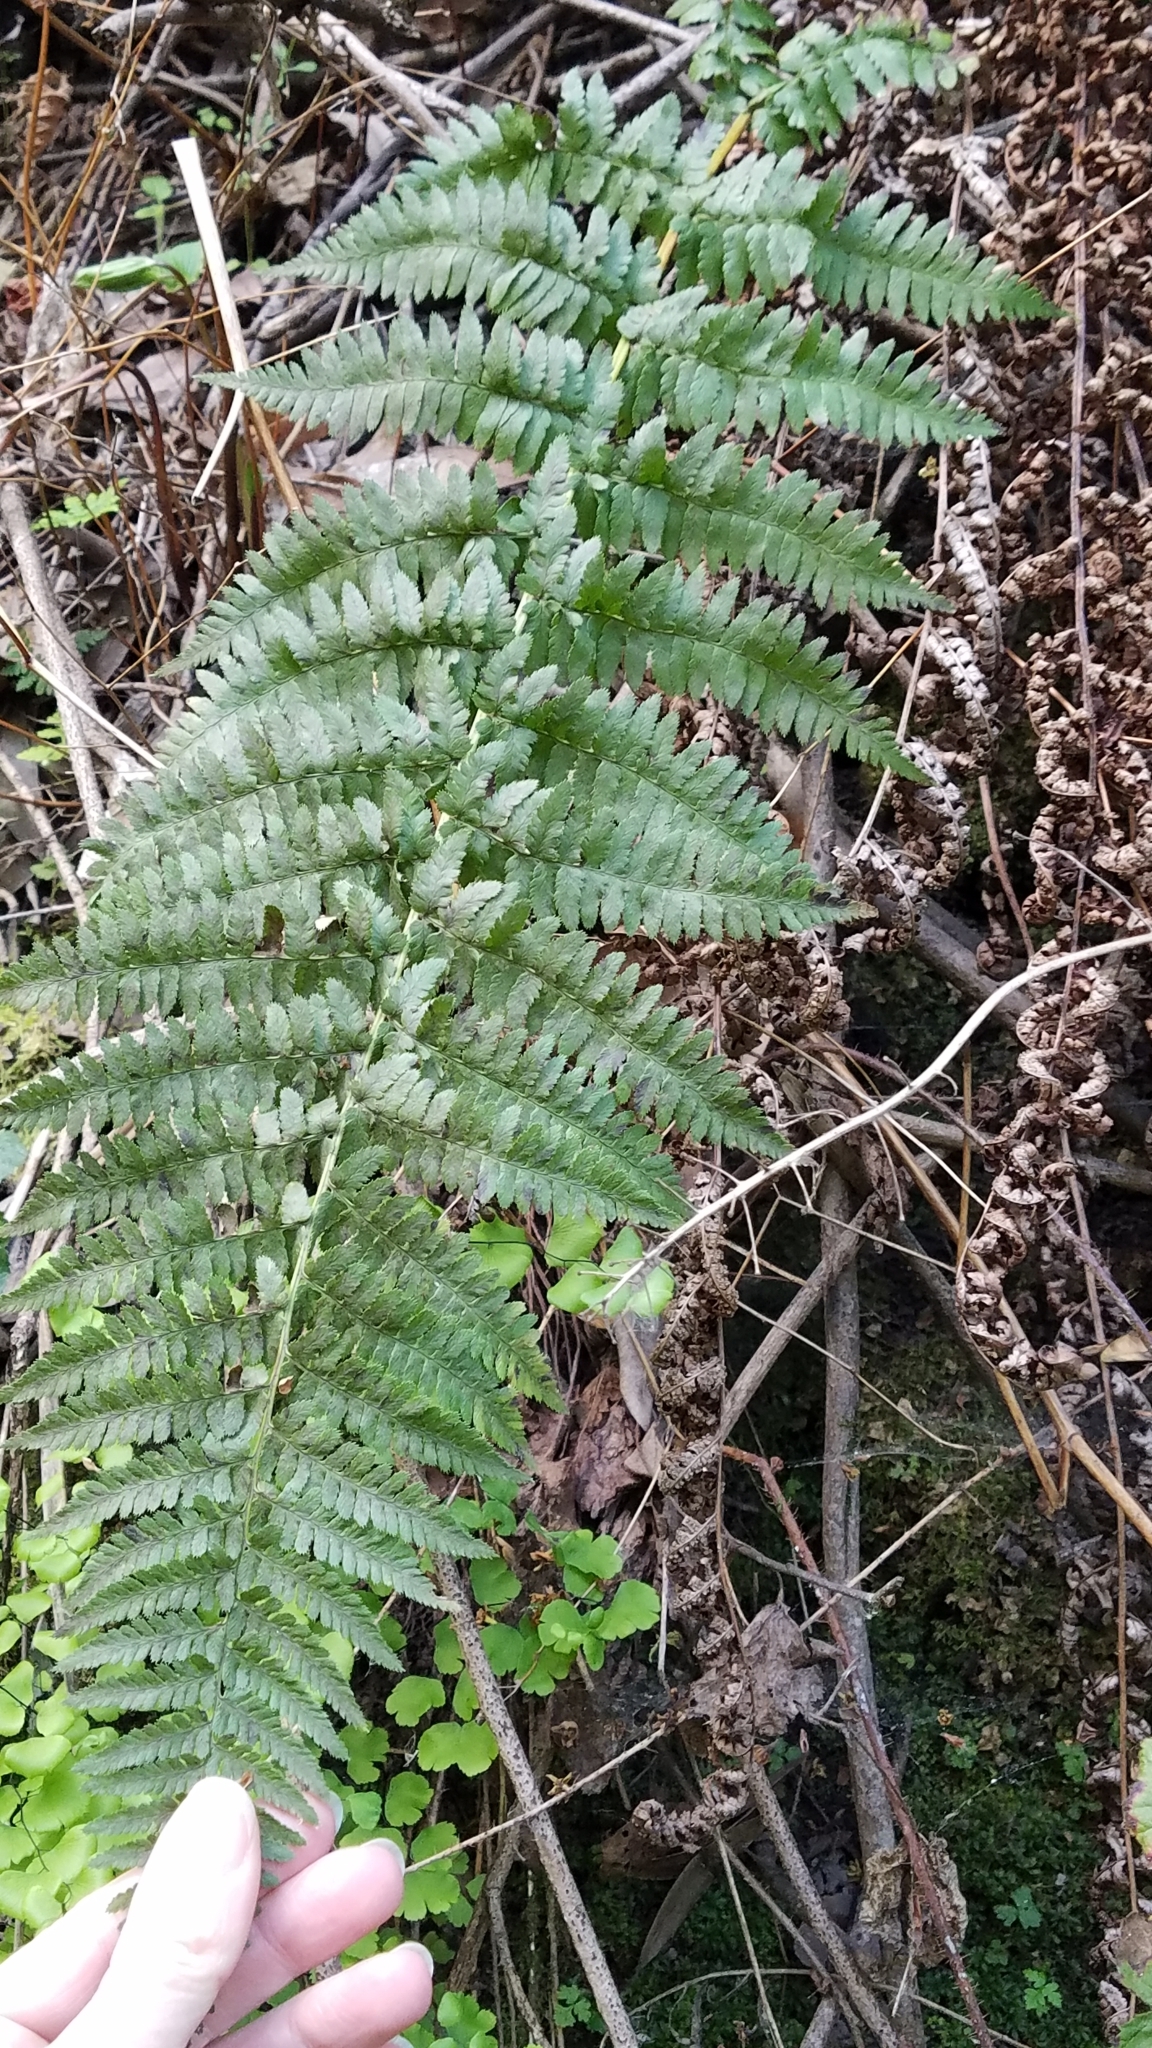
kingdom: Plantae
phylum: Tracheophyta
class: Polypodiopsida
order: Polypodiales
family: Dryopteridaceae
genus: Dryopteris
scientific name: Dryopteris arguta
